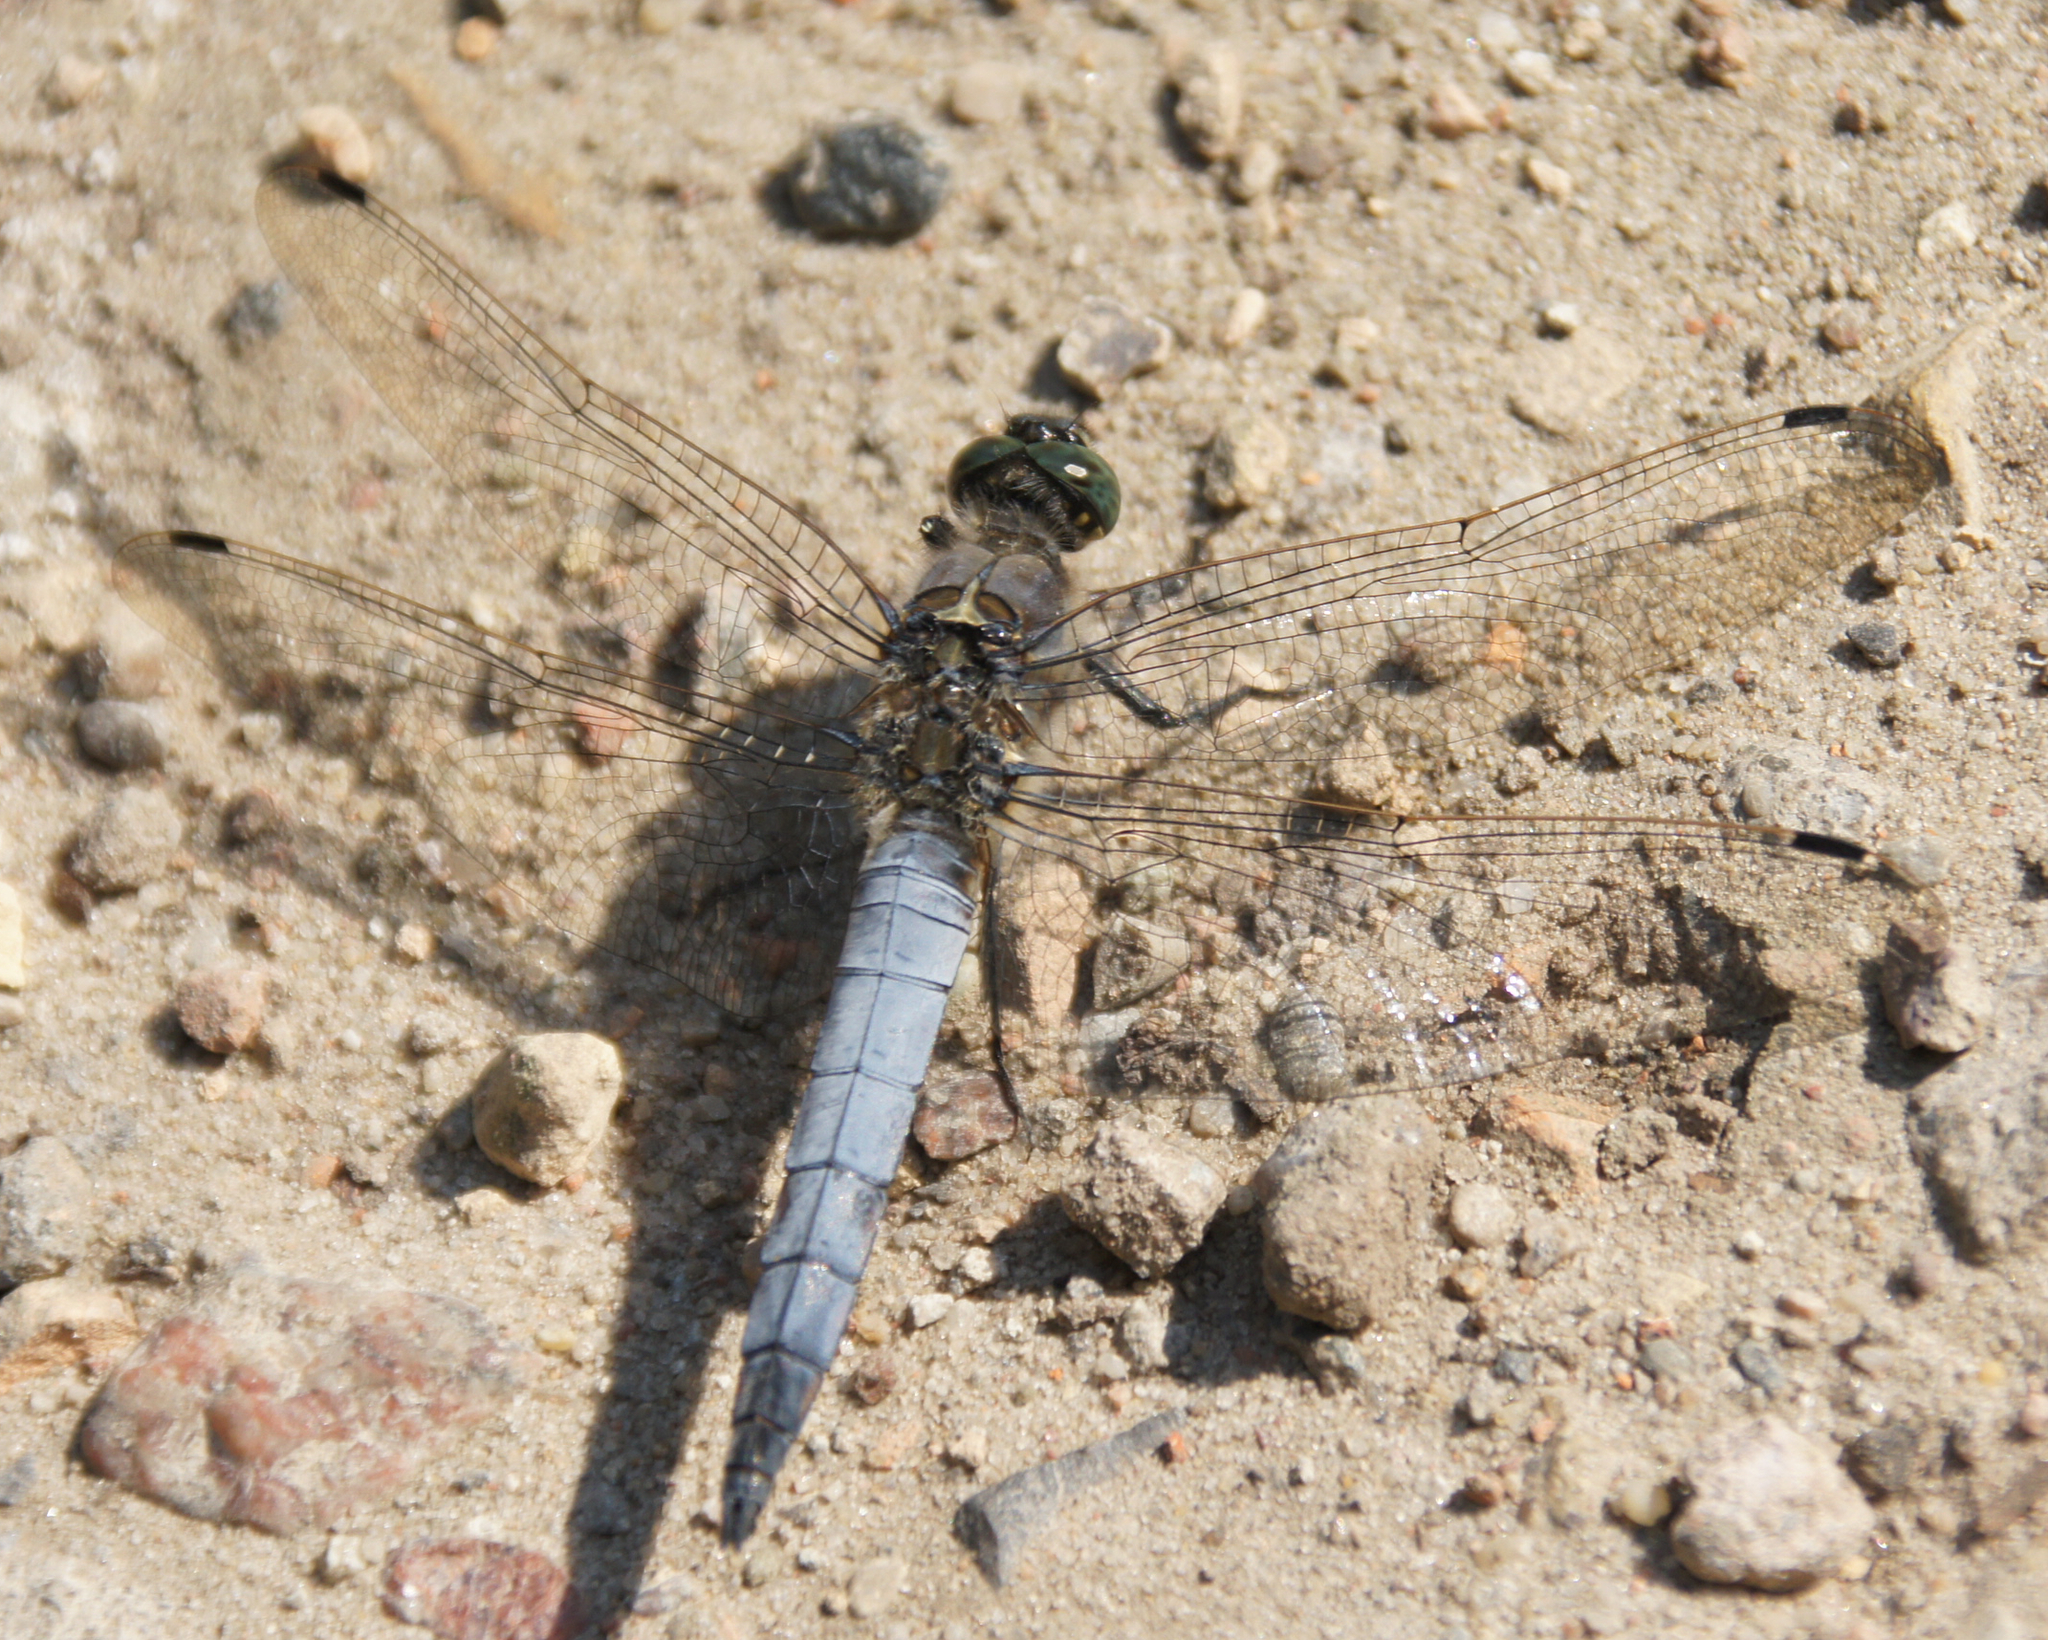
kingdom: Animalia
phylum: Arthropoda
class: Insecta
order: Odonata
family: Libellulidae
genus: Orthetrum
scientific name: Orthetrum cancellatum
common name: Black-tailed skimmer
